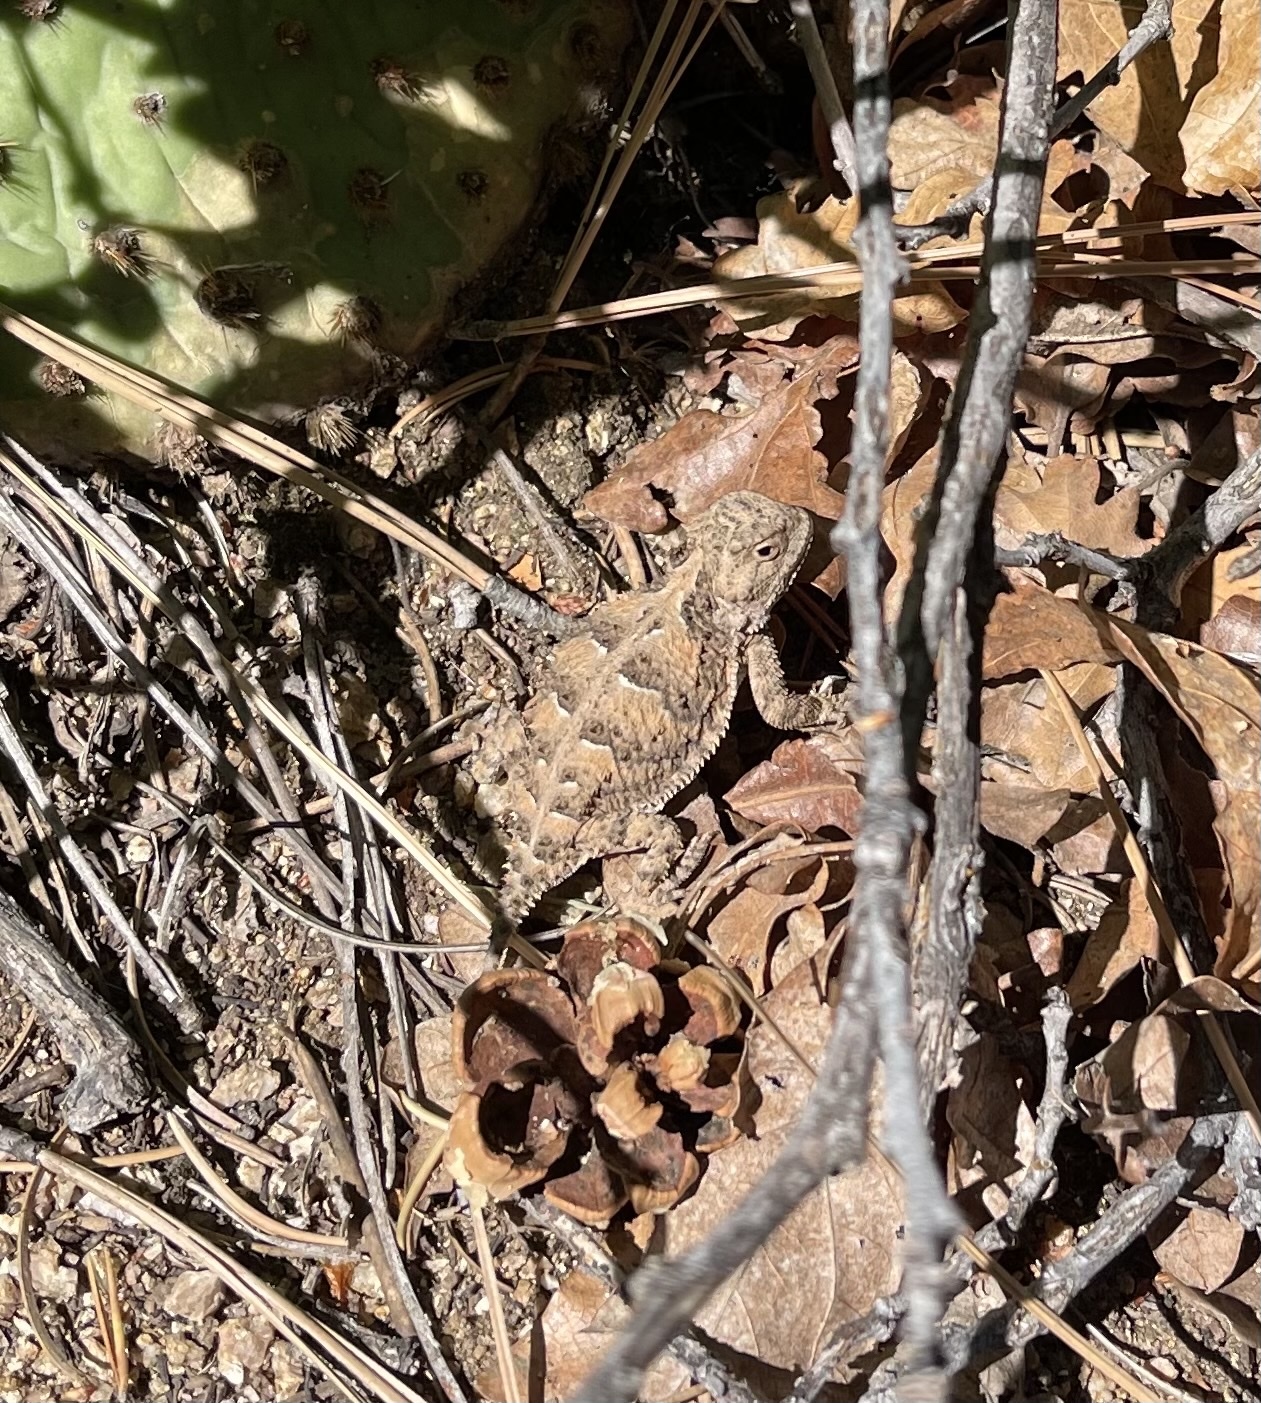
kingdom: Animalia
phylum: Chordata
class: Squamata
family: Phrynosomatidae
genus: Phrynosoma
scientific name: Phrynosoma hernandesi
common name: Greater short-horned lizard
